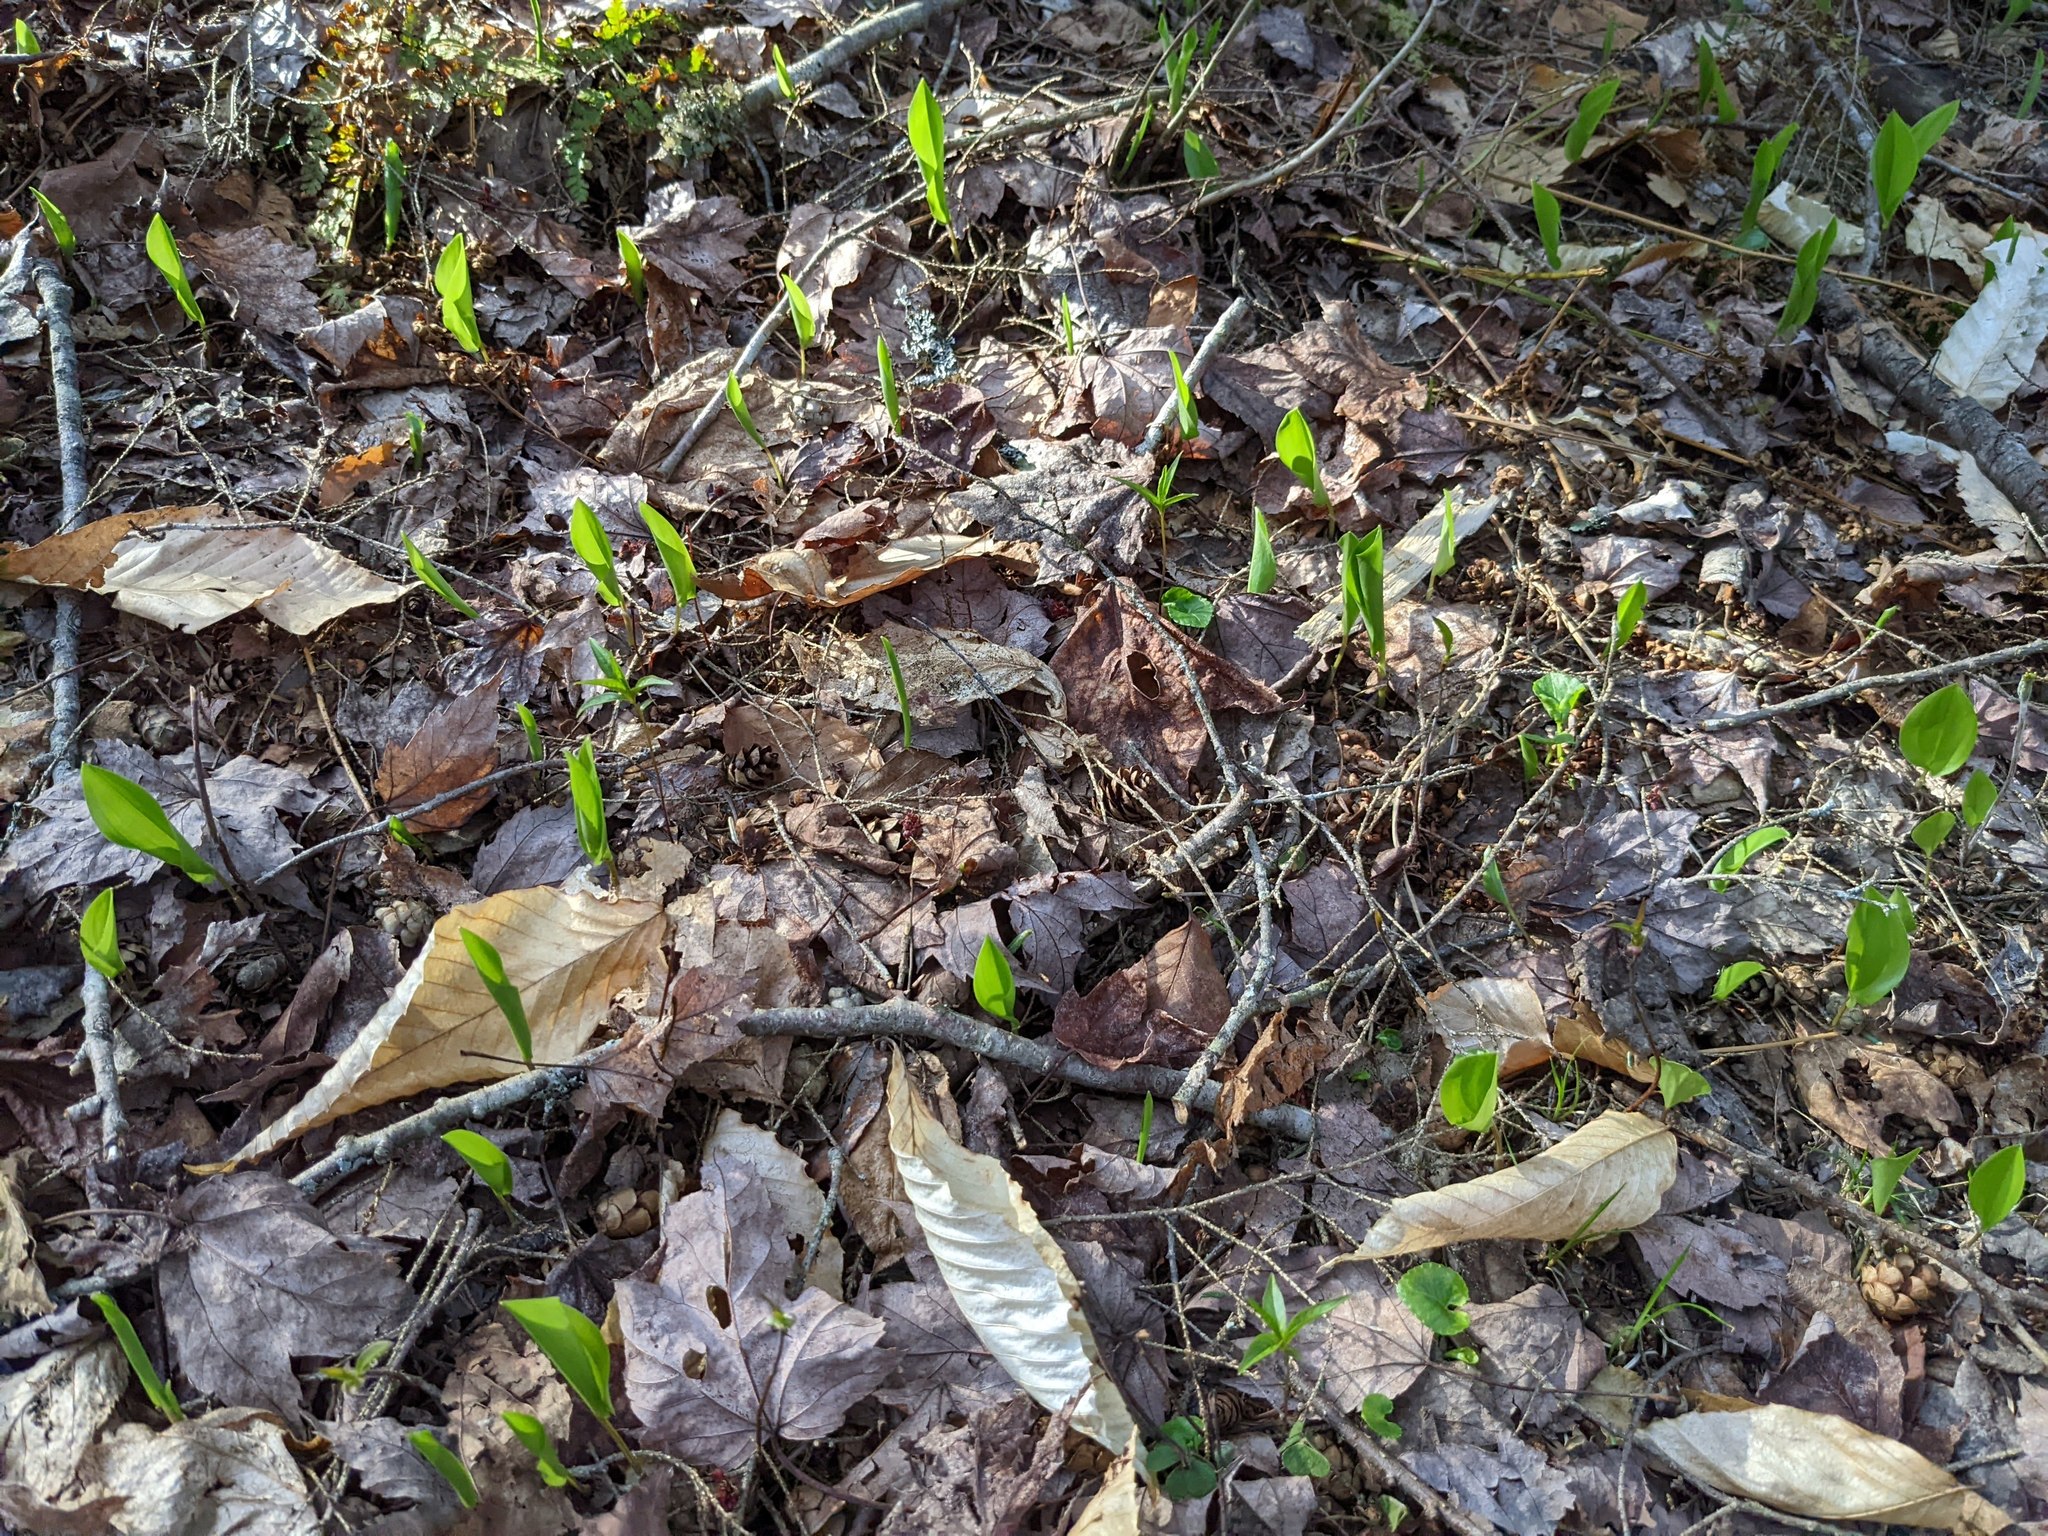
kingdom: Plantae
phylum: Tracheophyta
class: Liliopsida
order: Asparagales
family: Asparagaceae
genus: Maianthemum
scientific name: Maianthemum canadense
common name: False lily-of-the-valley
